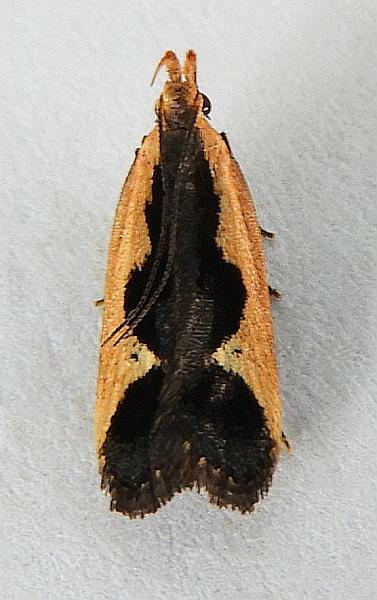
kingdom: Animalia
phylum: Arthropoda
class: Insecta
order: Lepidoptera
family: Gelechiidae
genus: Dichomeris
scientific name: Dichomeris fistuca
